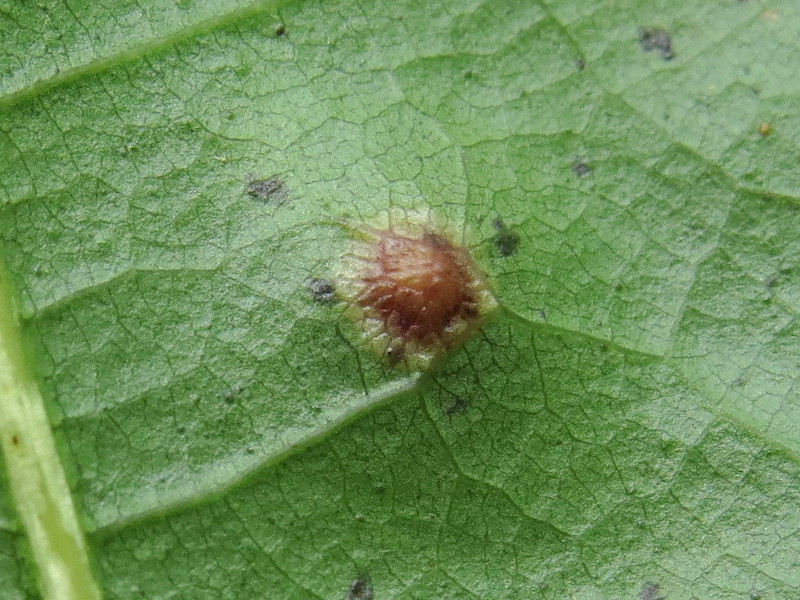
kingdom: Animalia
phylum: Arthropoda
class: Insecta
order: Diptera
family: Cecidomyiidae
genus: Polystepha
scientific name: Polystepha pilulae
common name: Oak leaf gall midge
